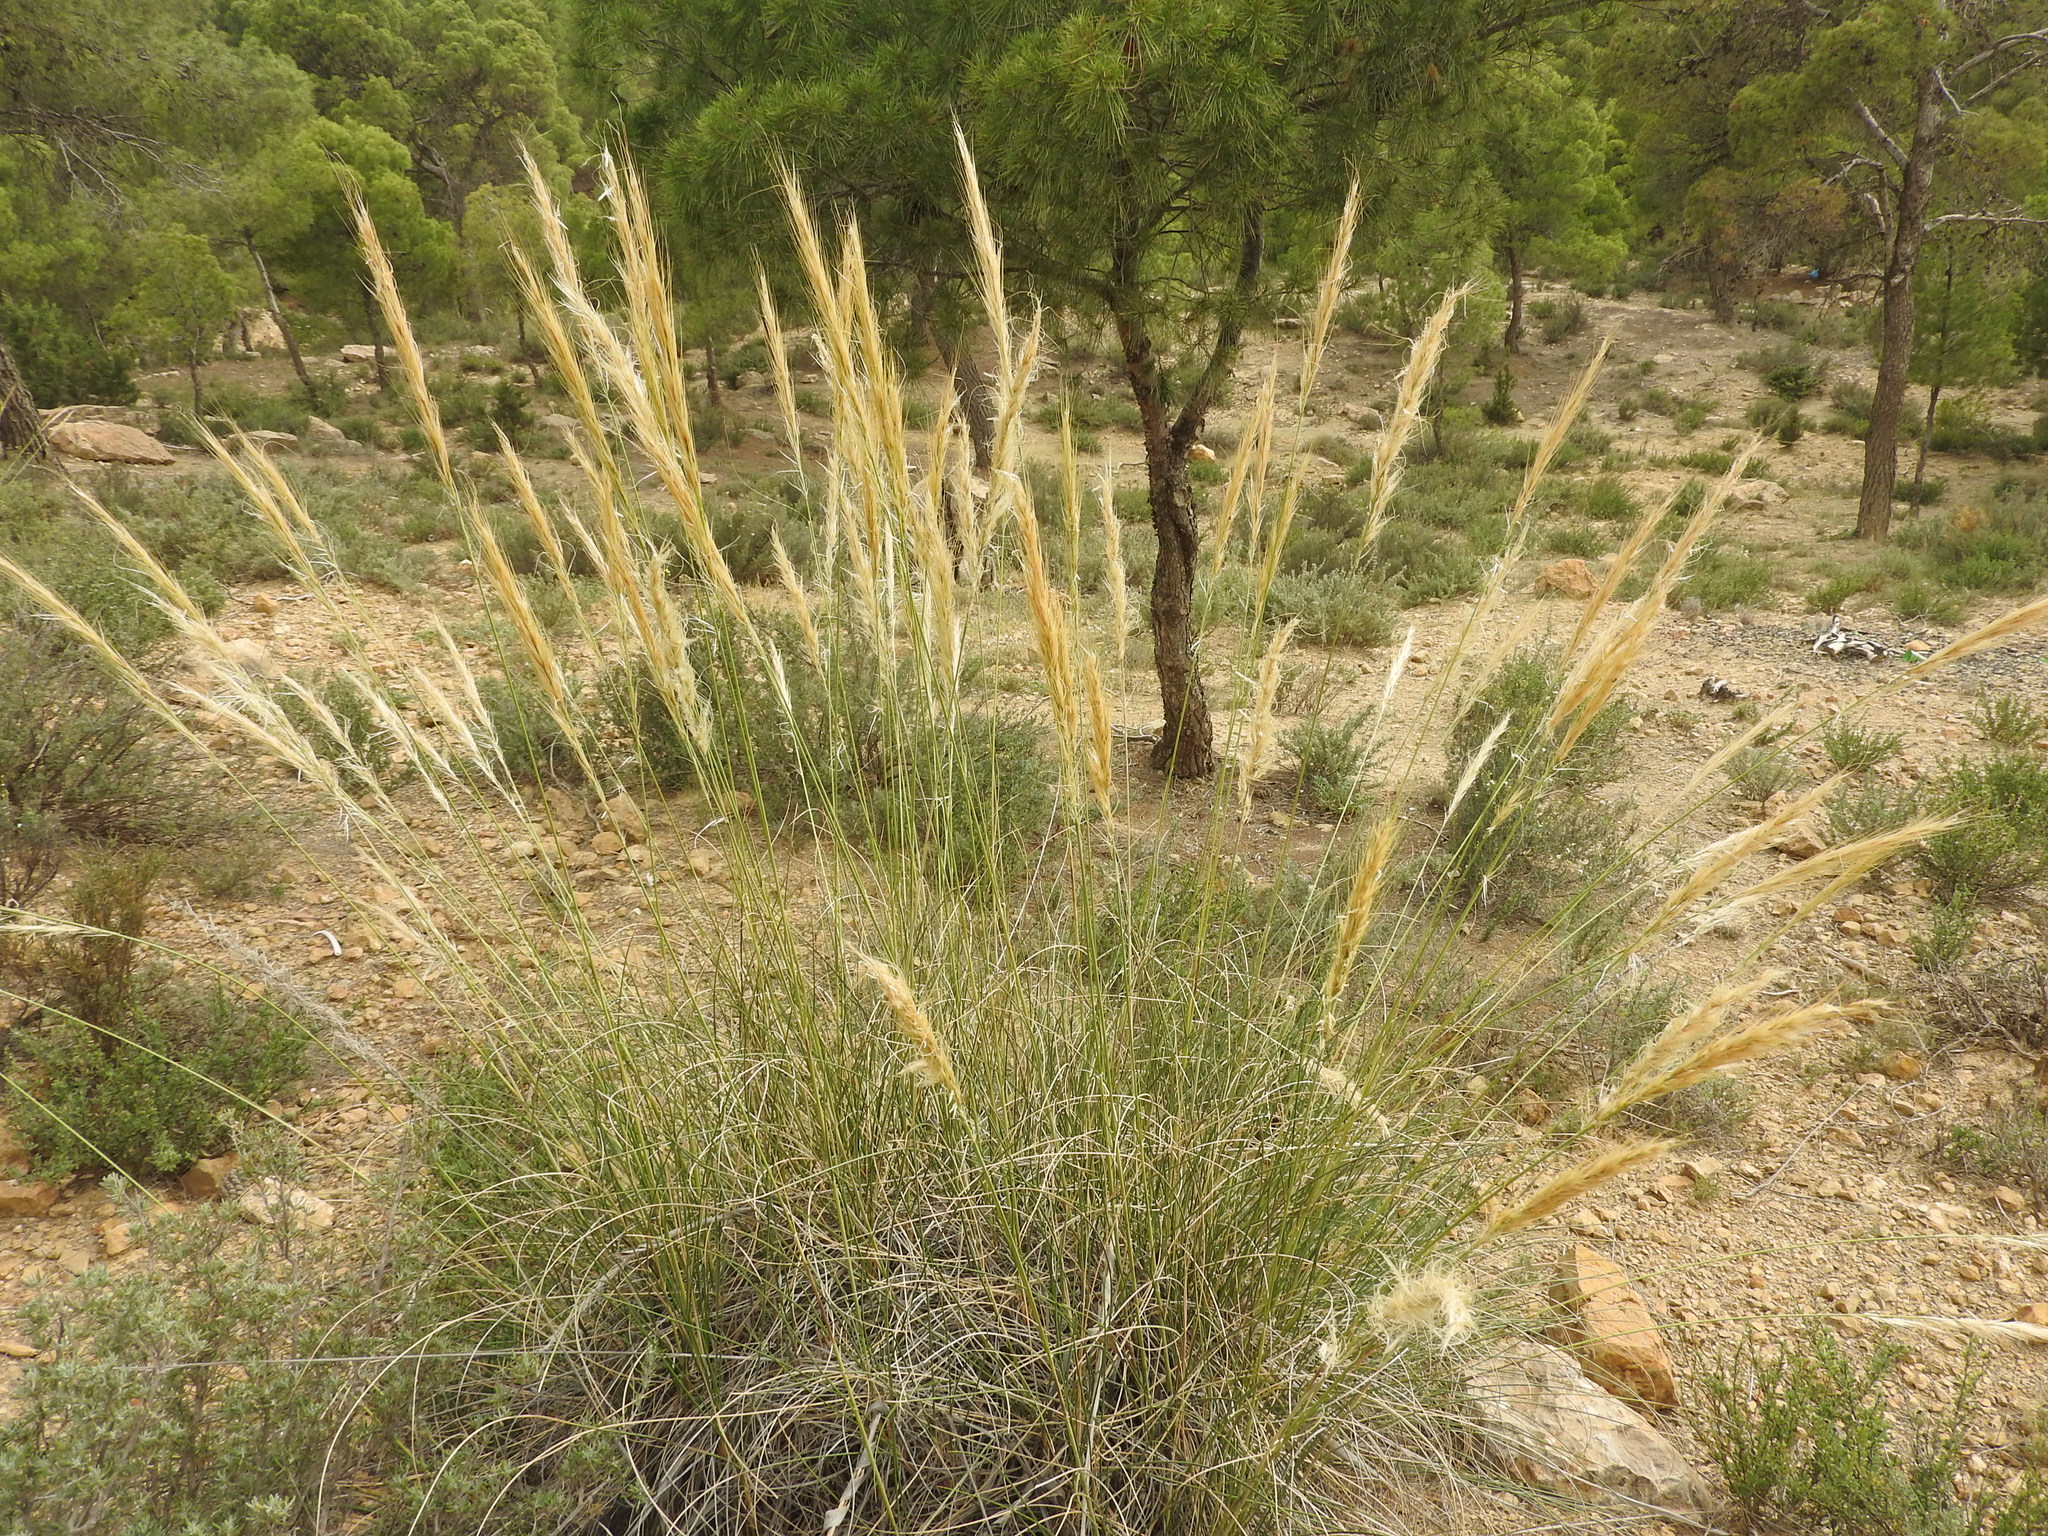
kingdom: Plantae
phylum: Tracheophyta
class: Liliopsida
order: Poales
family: Poaceae
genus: Macrochloa
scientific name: Macrochloa tenacissima
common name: Alfa grass
